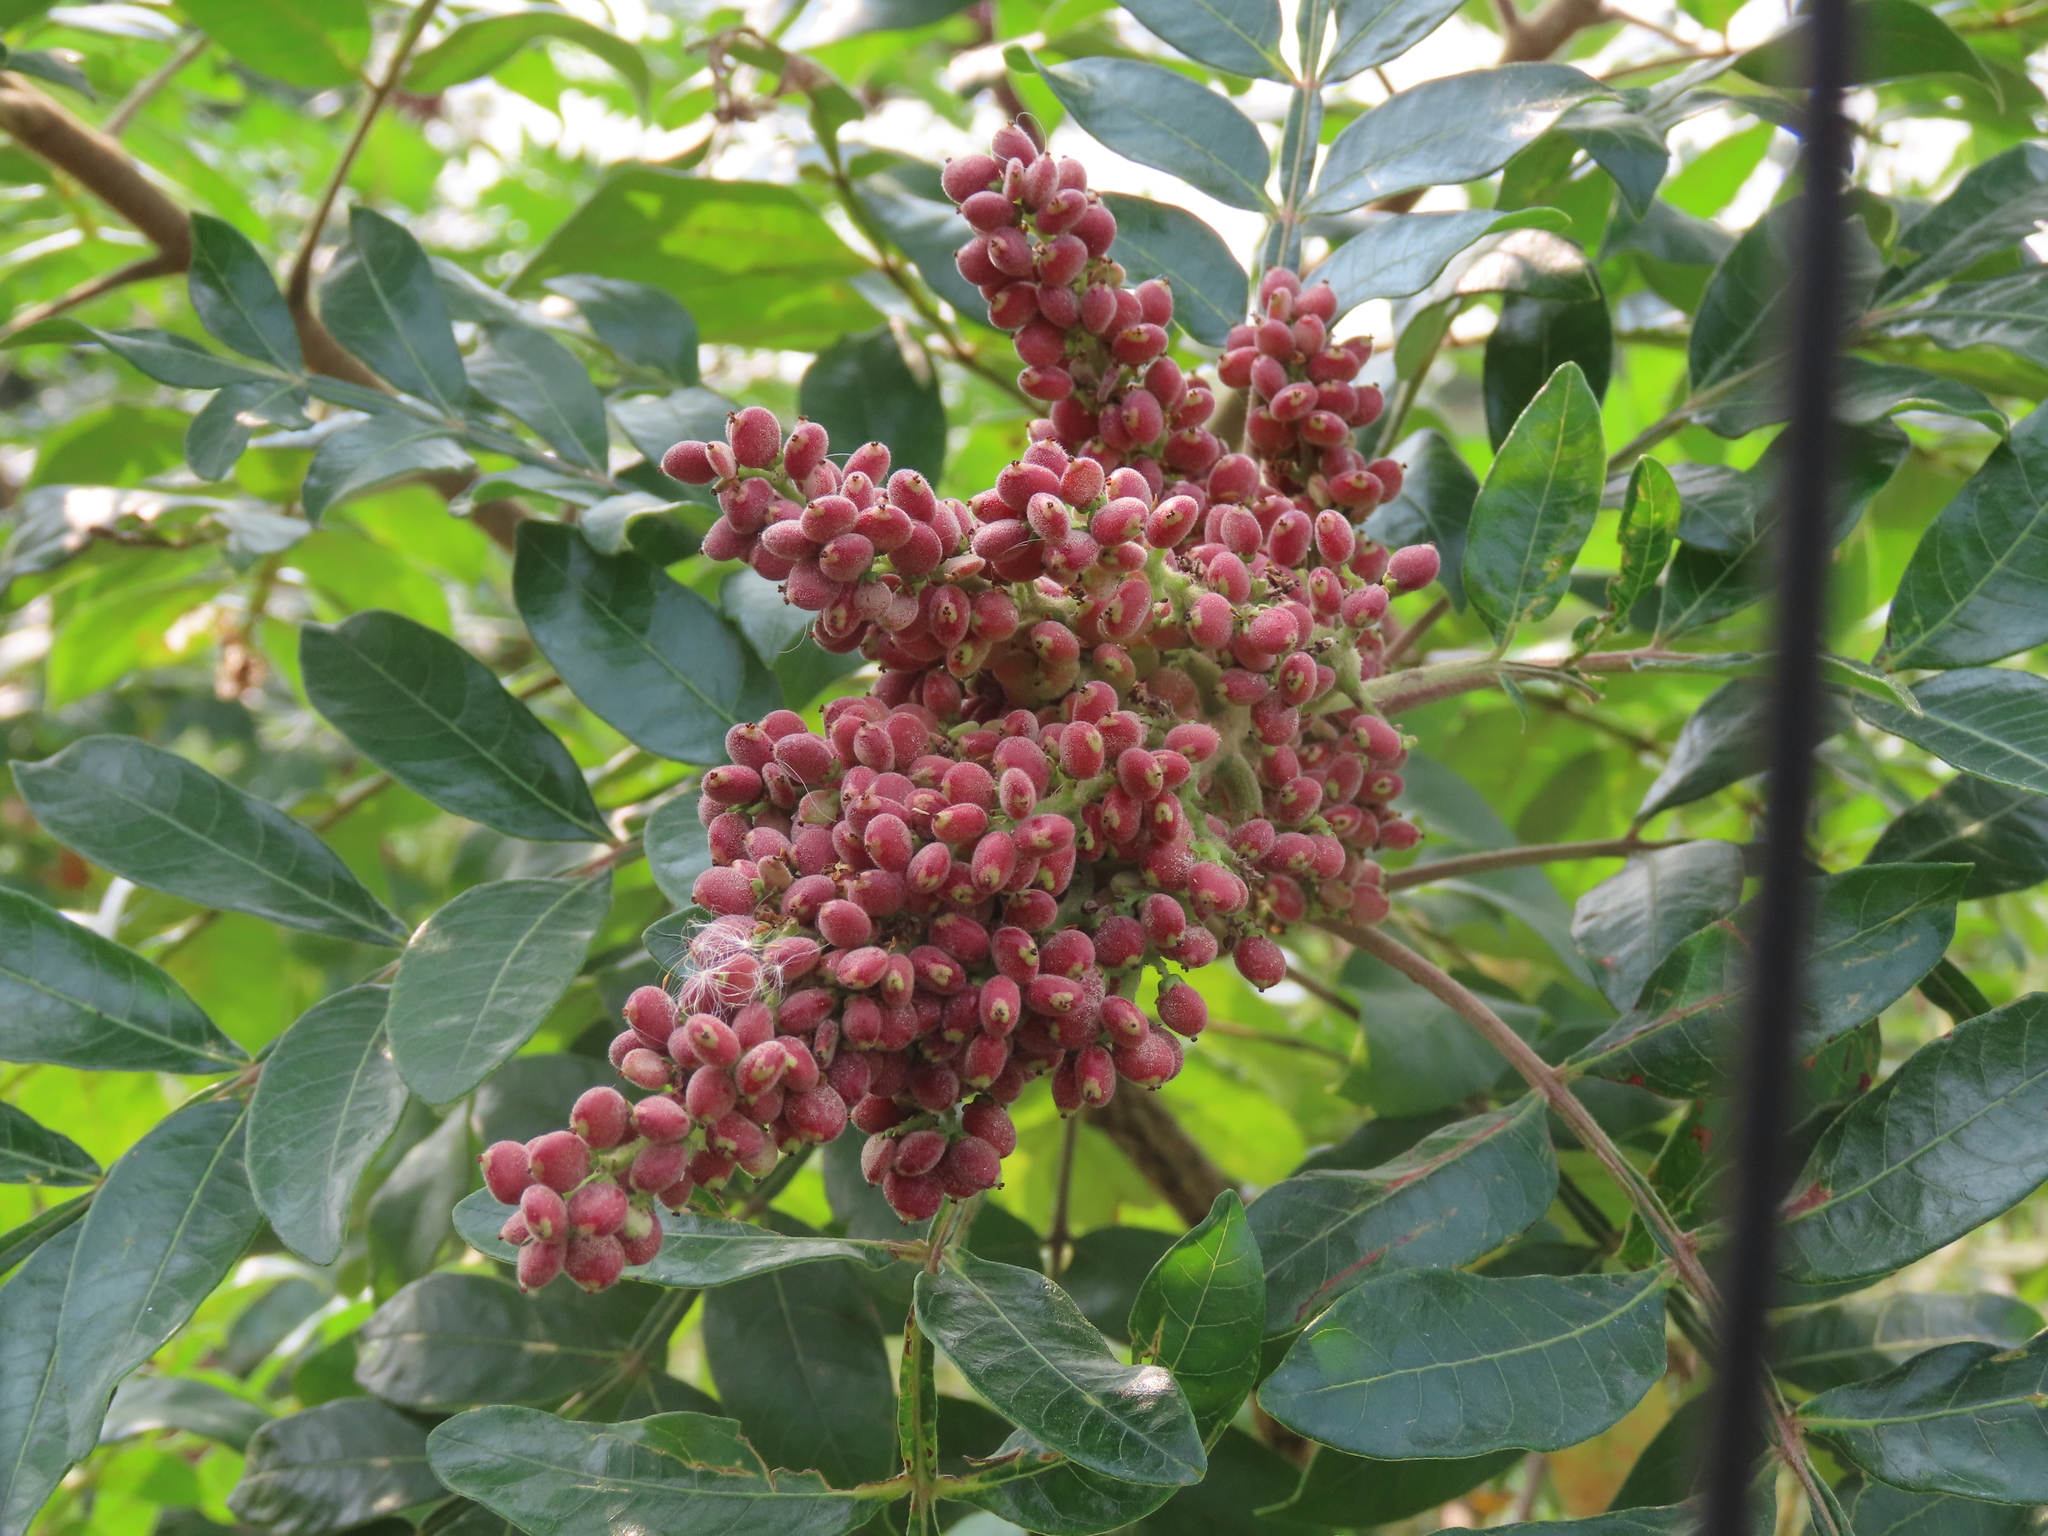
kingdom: Plantae
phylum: Tracheophyta
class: Magnoliopsida
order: Sapindales
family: Anacardiaceae
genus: Rhus
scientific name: Rhus copallina
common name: Shining sumac
